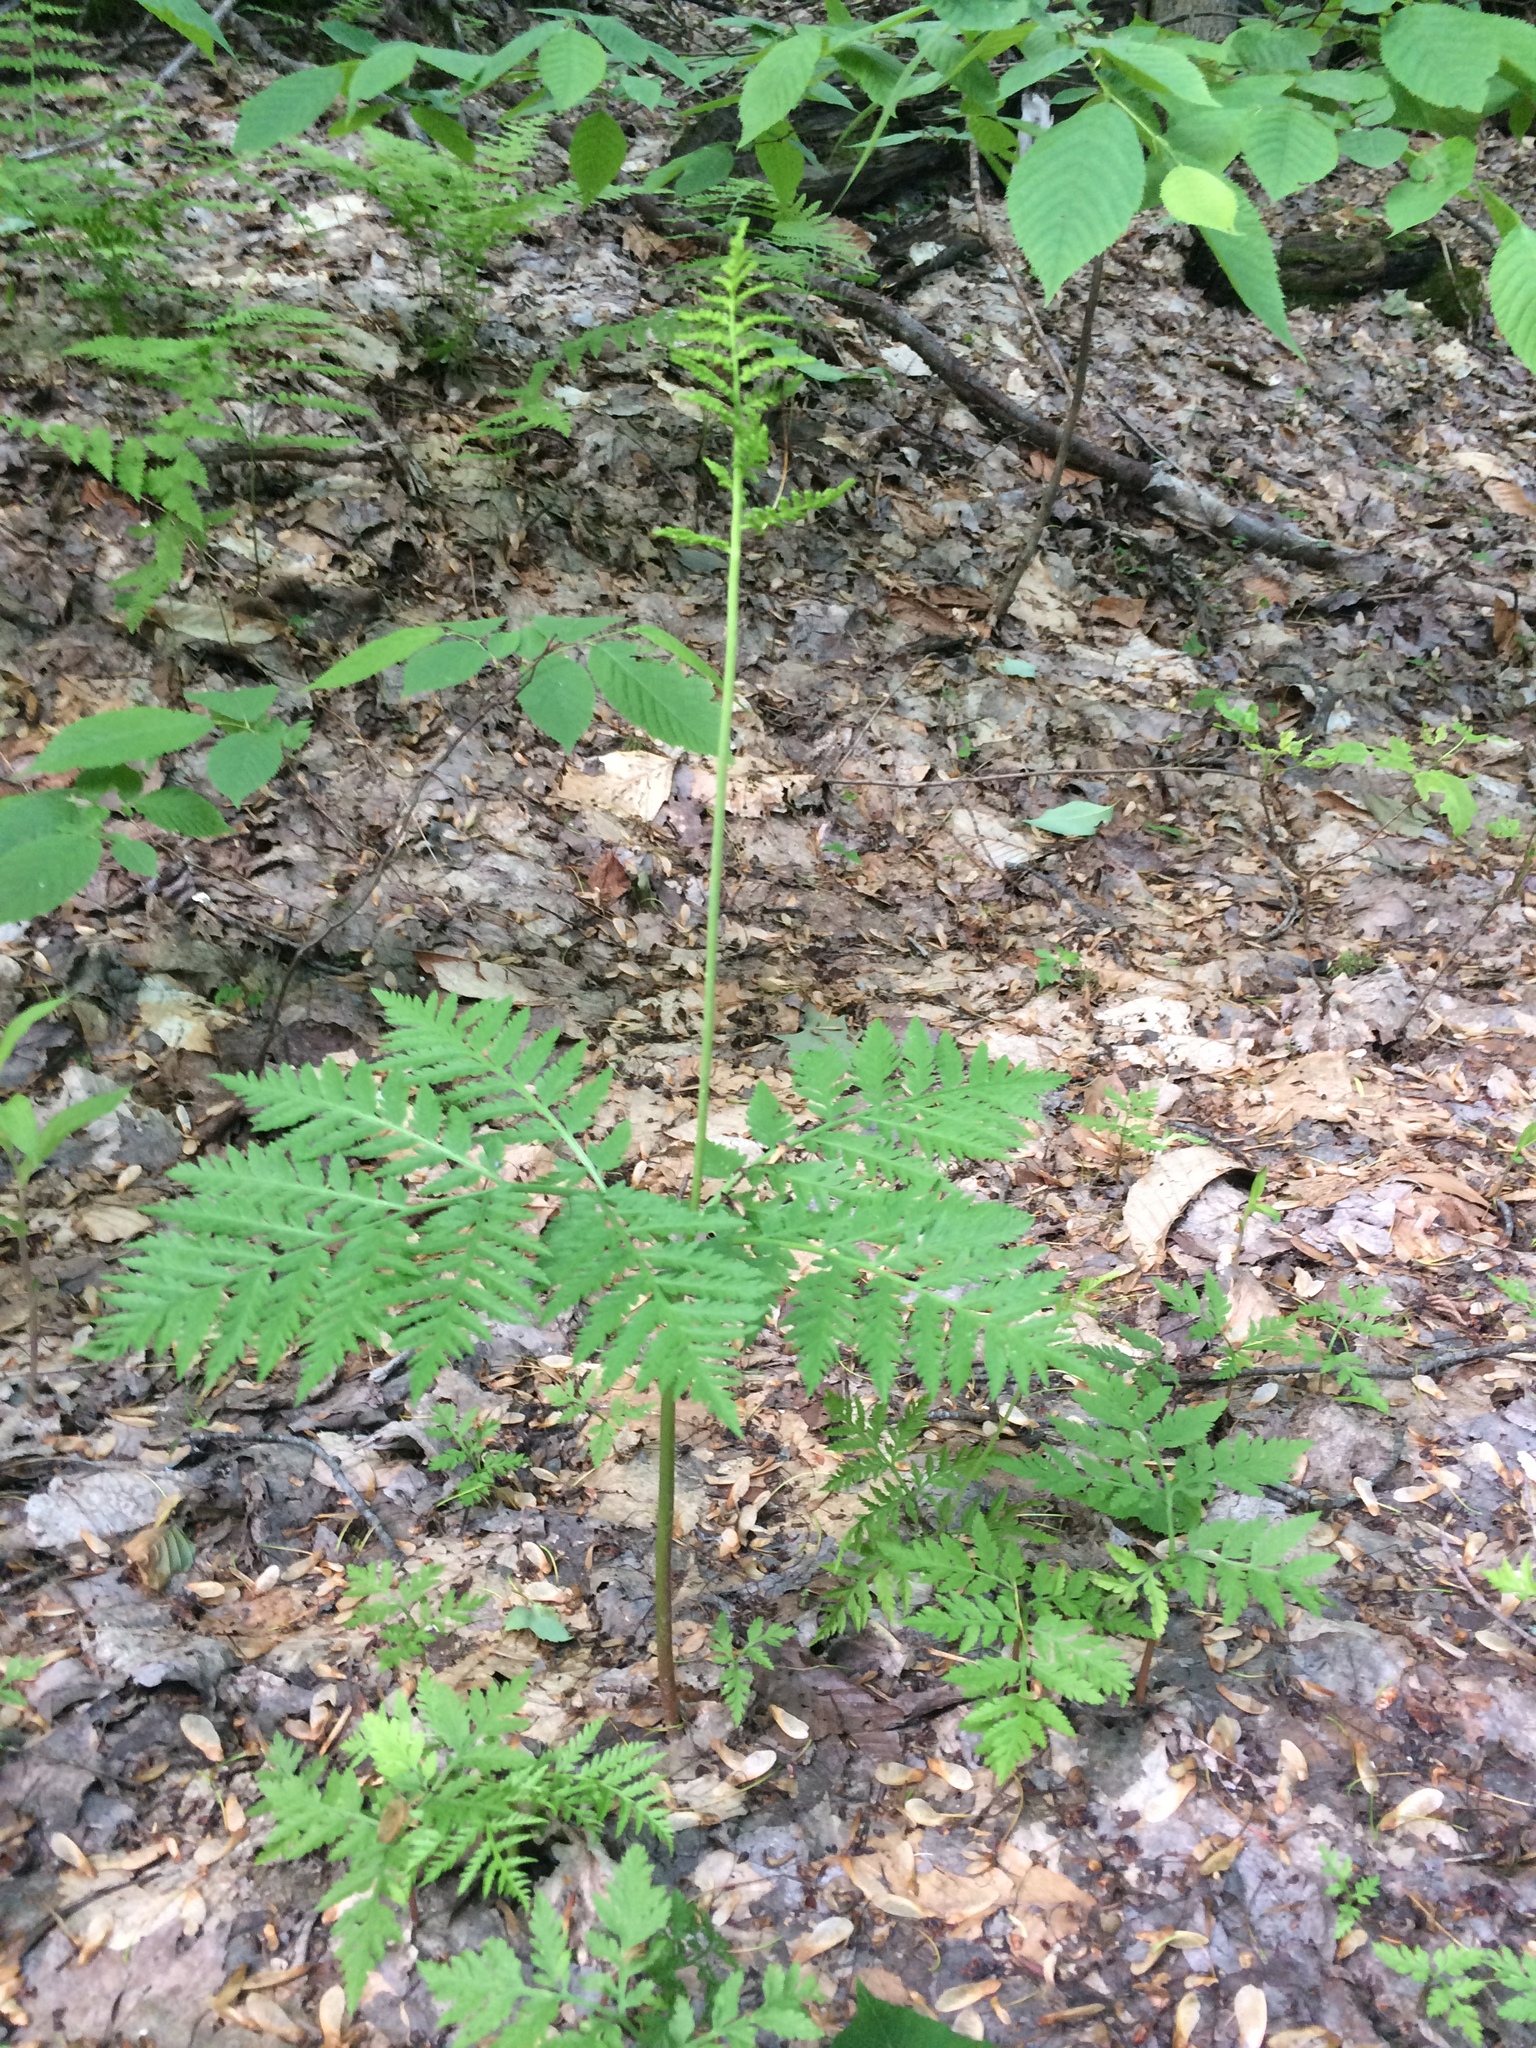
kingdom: Plantae
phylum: Tracheophyta
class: Polypodiopsida
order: Ophioglossales
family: Ophioglossaceae
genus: Botrypus
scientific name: Botrypus virginianus
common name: Common grapefern
